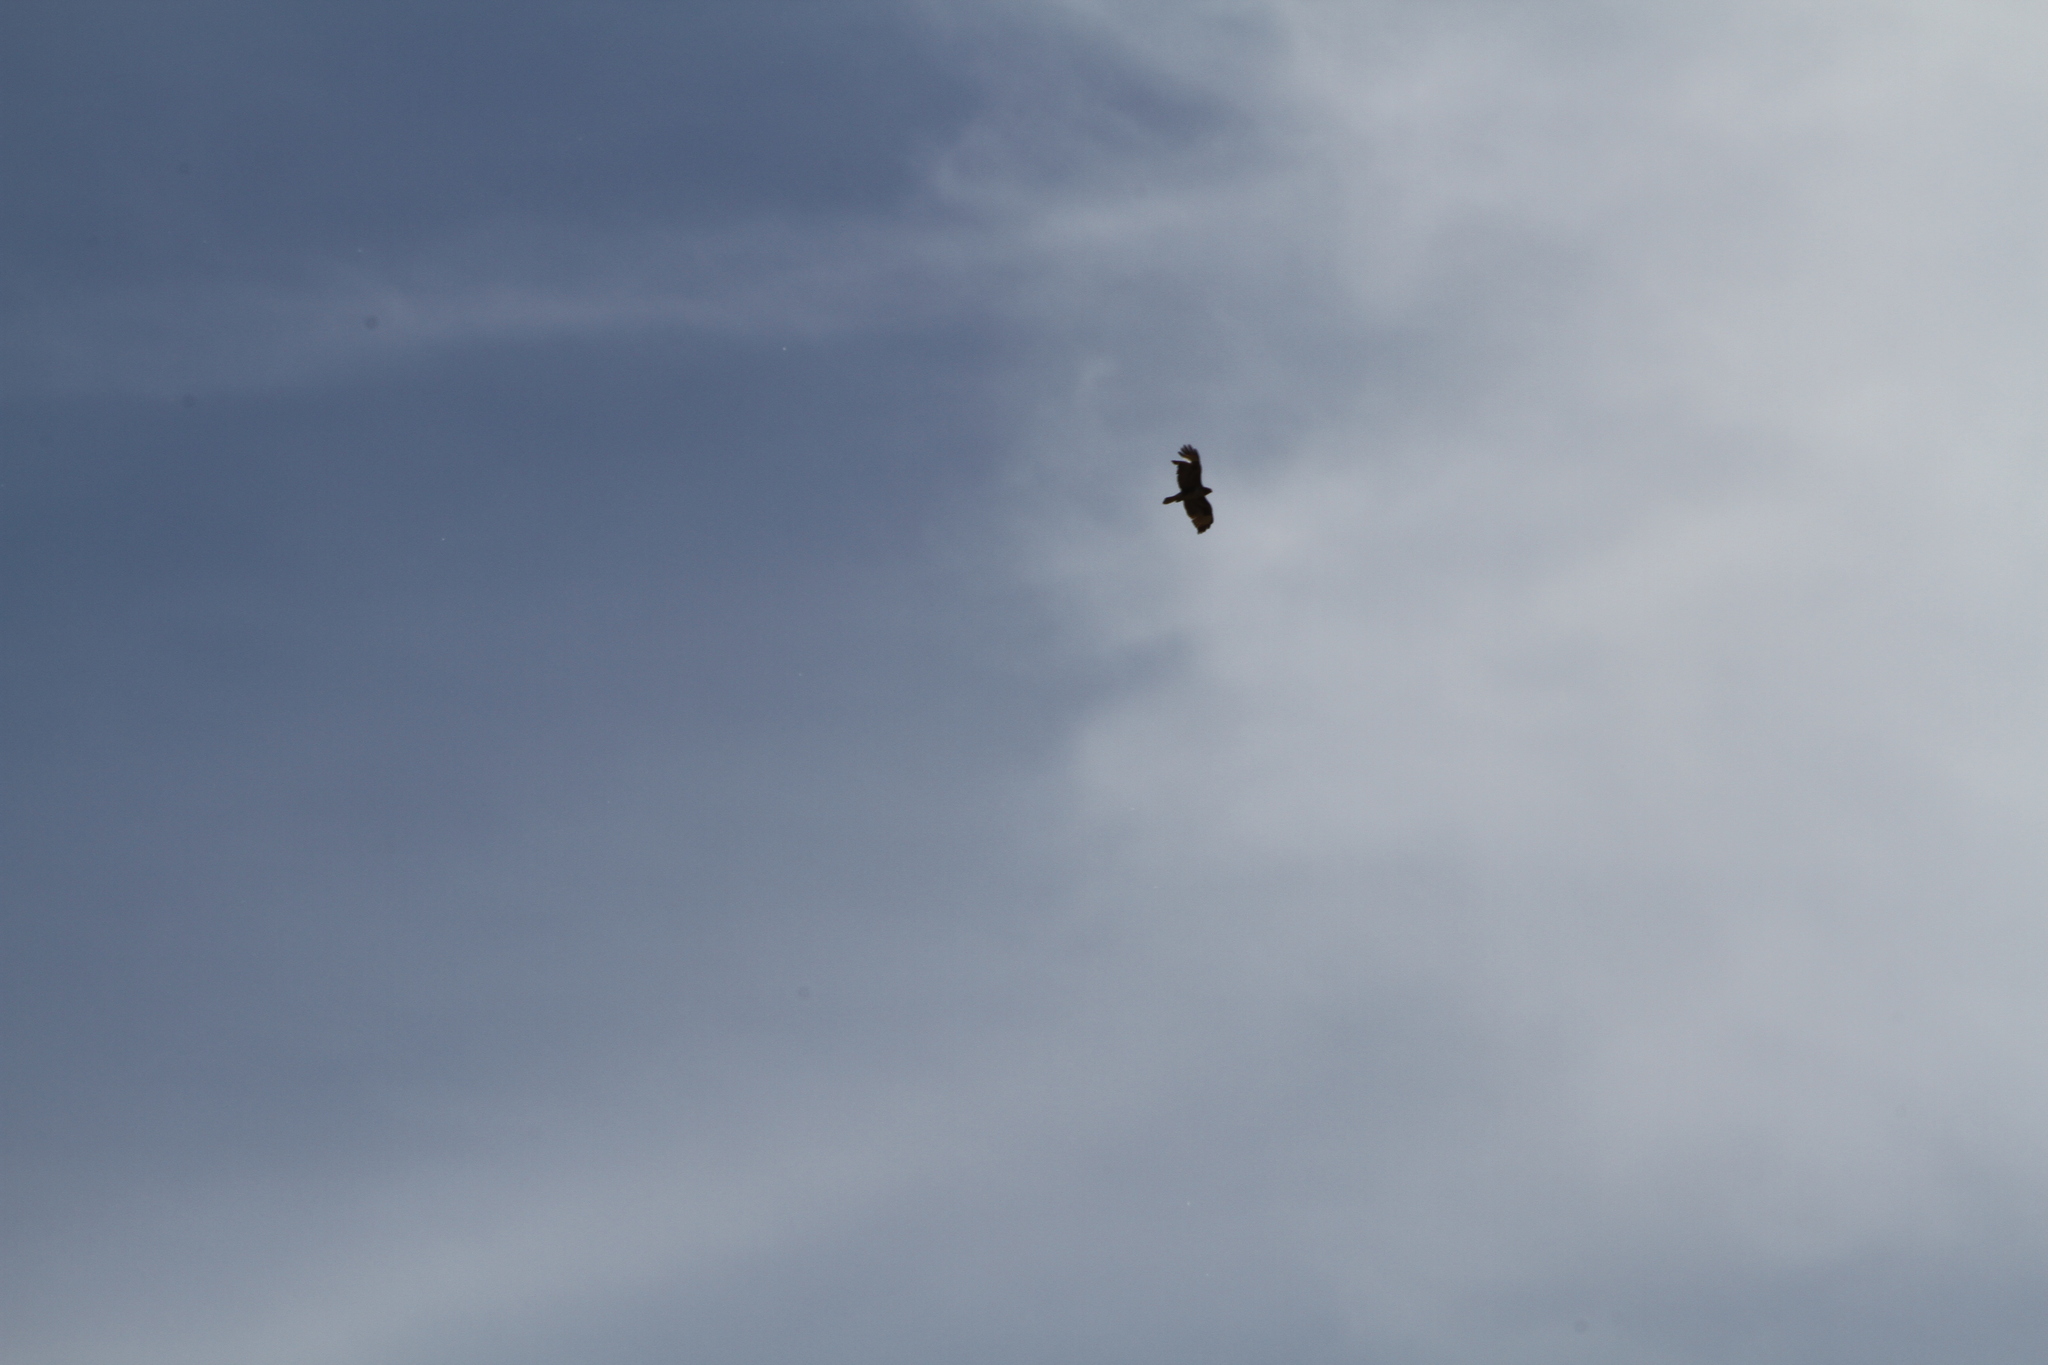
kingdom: Animalia
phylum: Chordata
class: Aves
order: Accipitriformes
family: Accipitridae
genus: Buteo
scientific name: Buteo buteo
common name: Common buzzard
